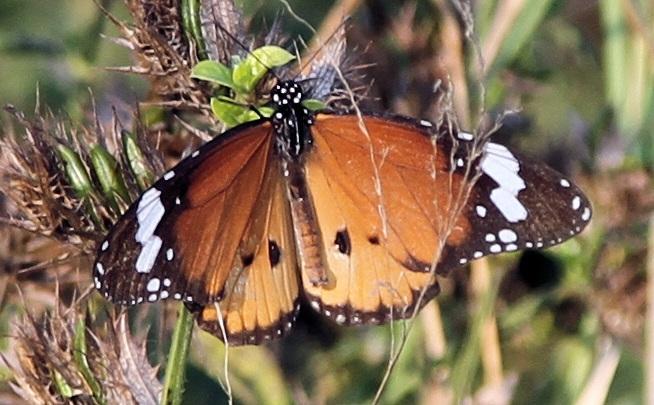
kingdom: Animalia
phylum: Arthropoda
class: Insecta
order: Lepidoptera
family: Nymphalidae
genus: Danaus
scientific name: Danaus chrysippus
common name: Plain tiger
